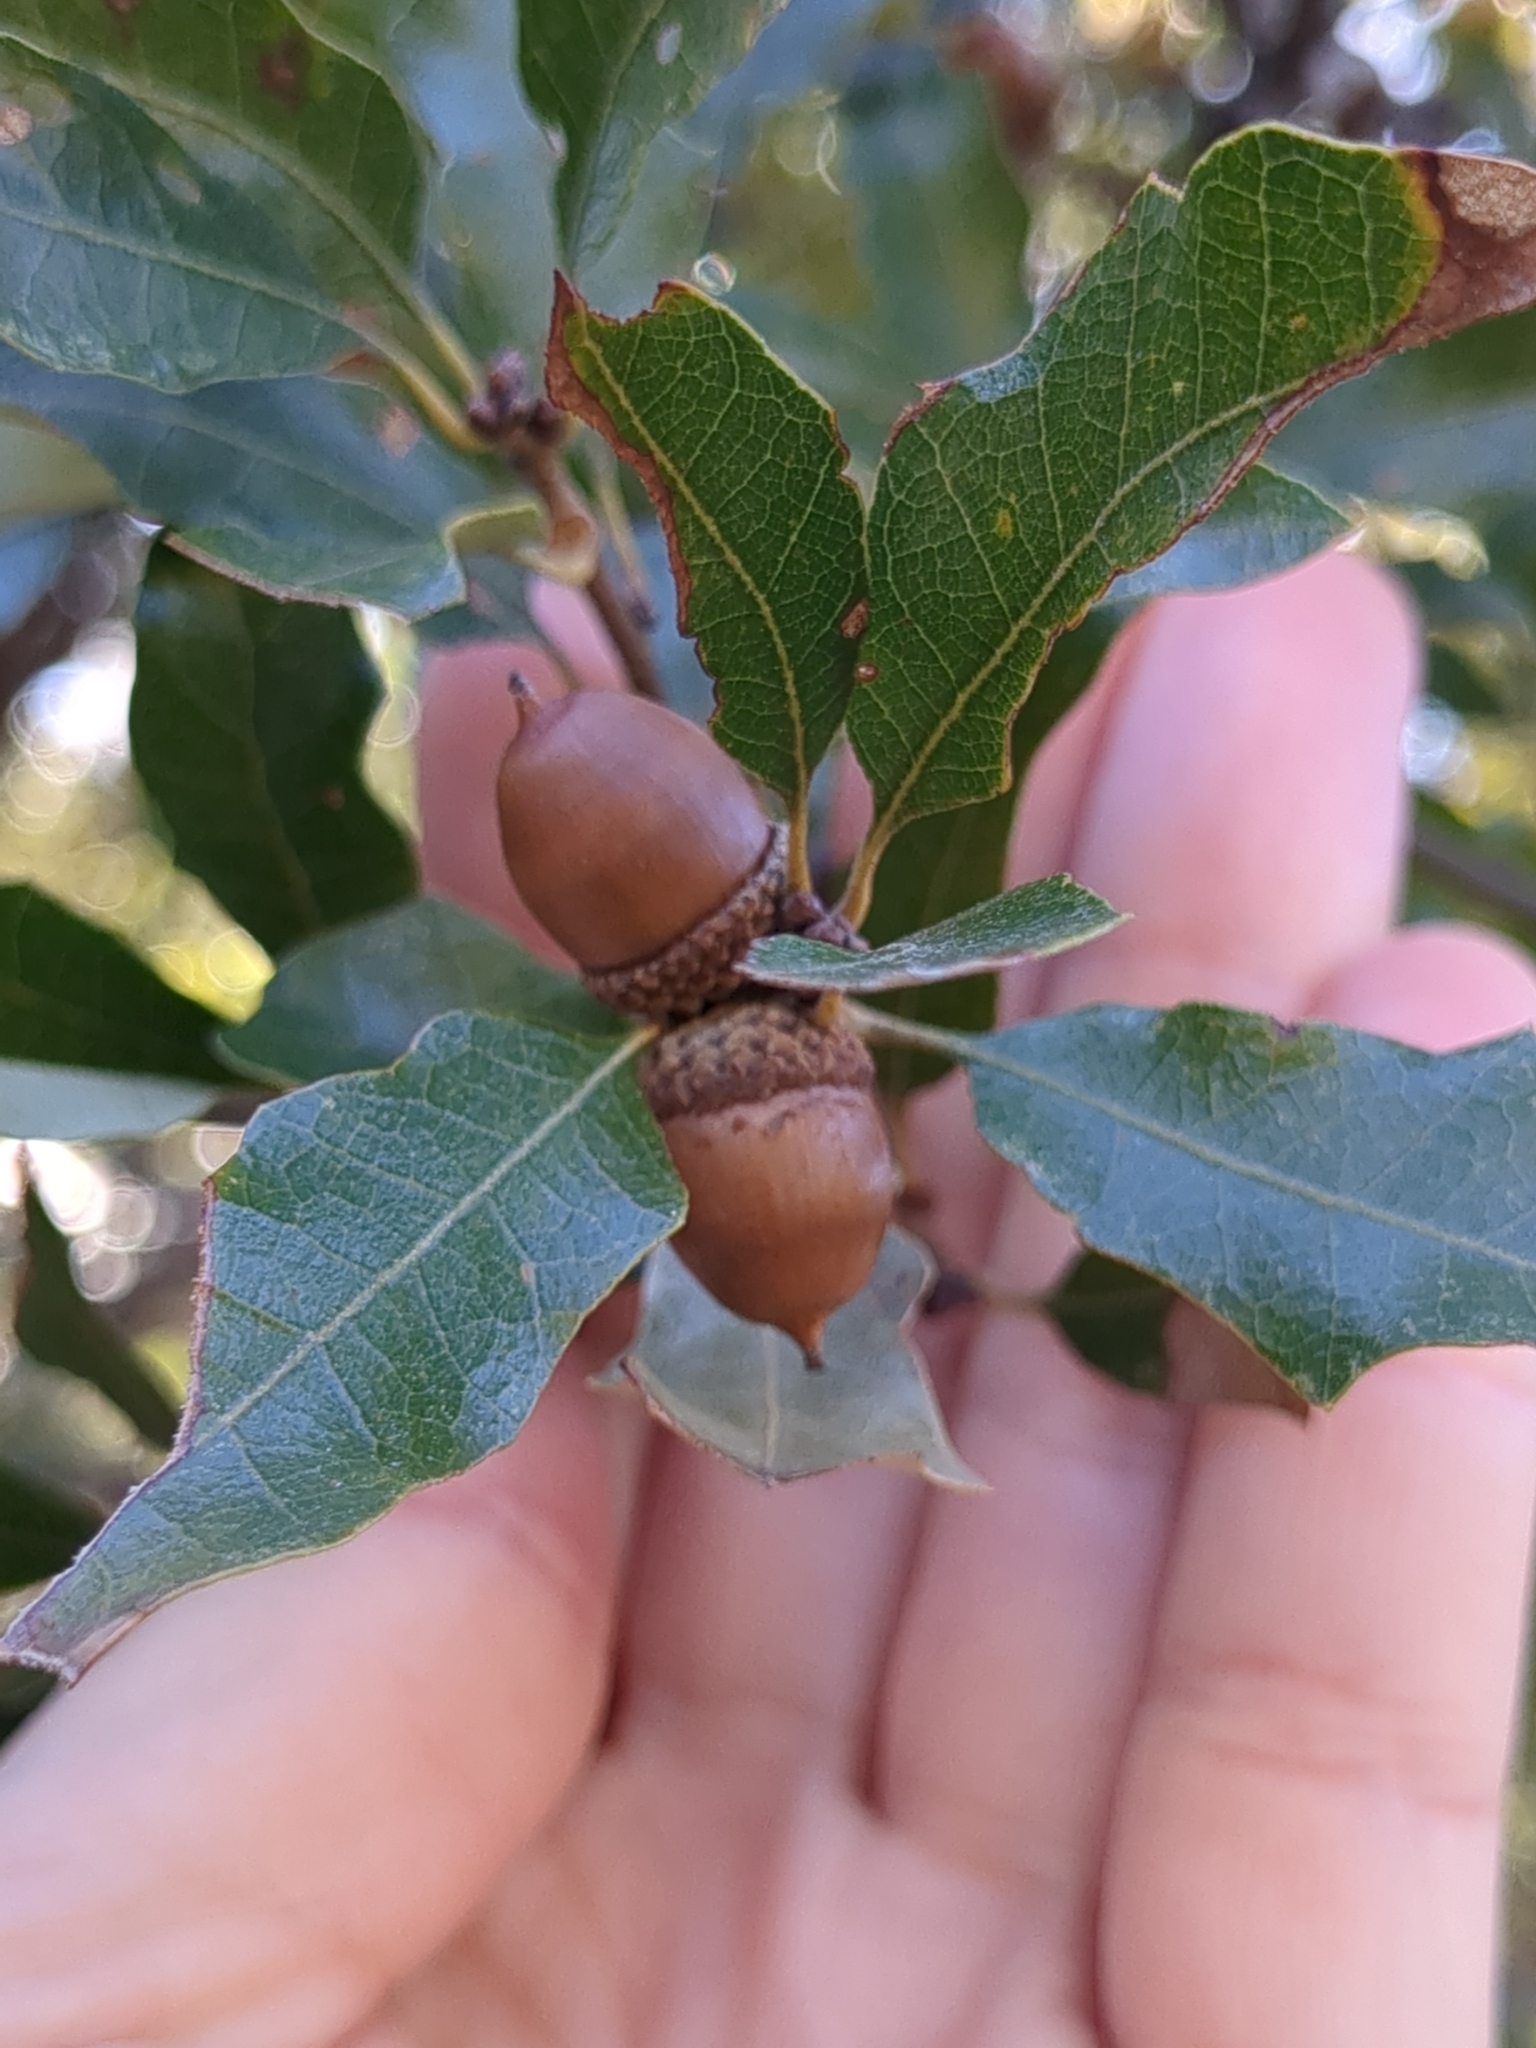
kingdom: Plantae
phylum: Tracheophyta
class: Magnoliopsida
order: Fagales
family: Fagaceae
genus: Quercus
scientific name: Quercus vaseyana
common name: Sandpaper oak
